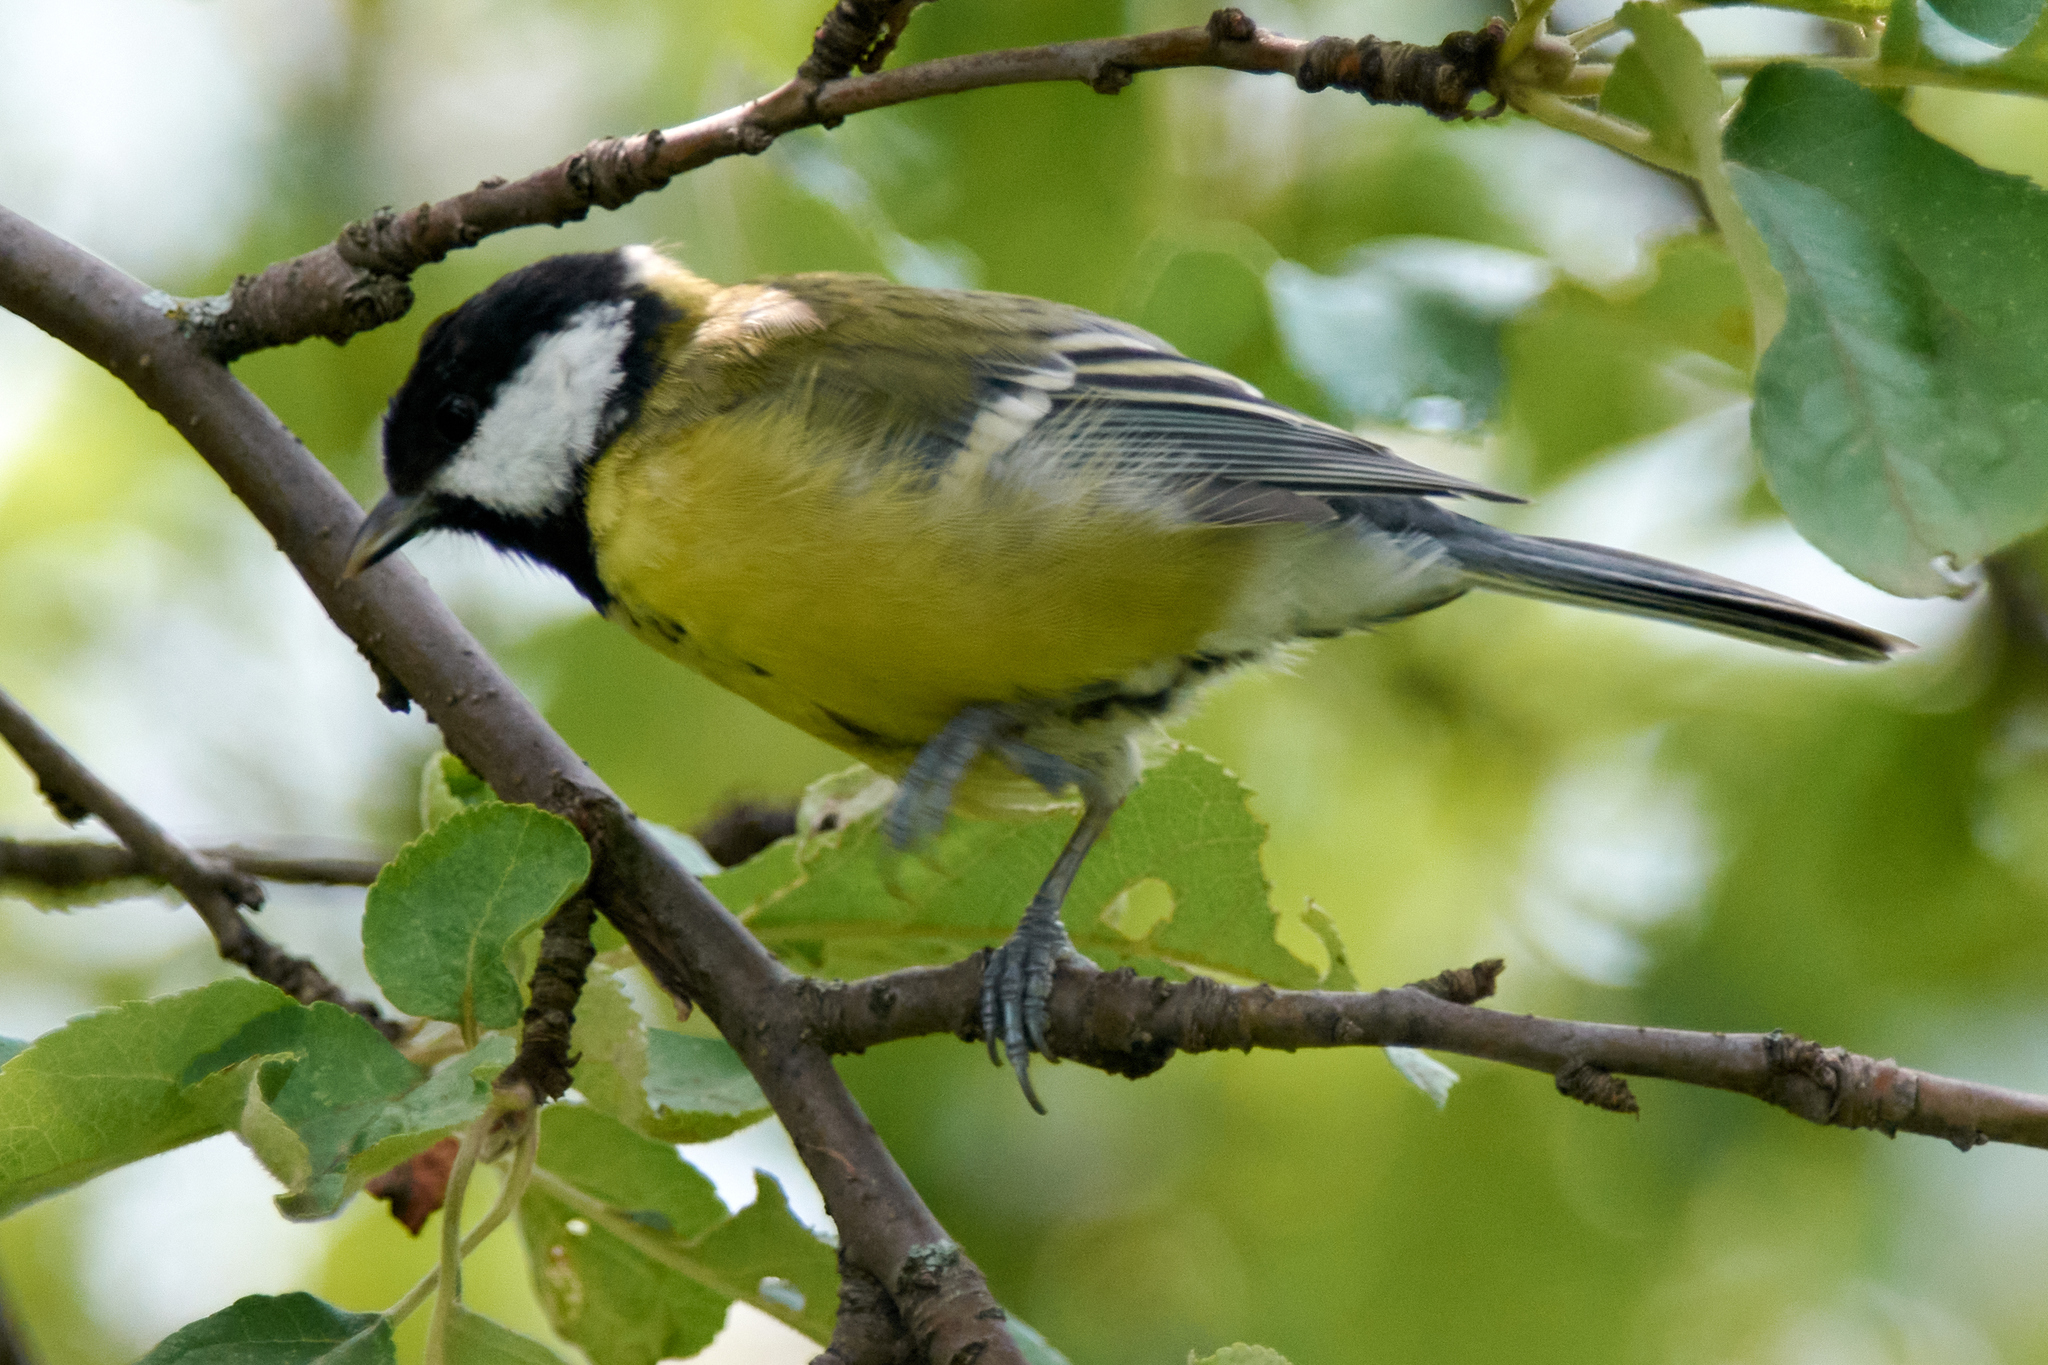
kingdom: Animalia
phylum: Chordata
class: Aves
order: Passeriformes
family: Paridae
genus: Parus
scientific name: Parus major
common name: Great tit
